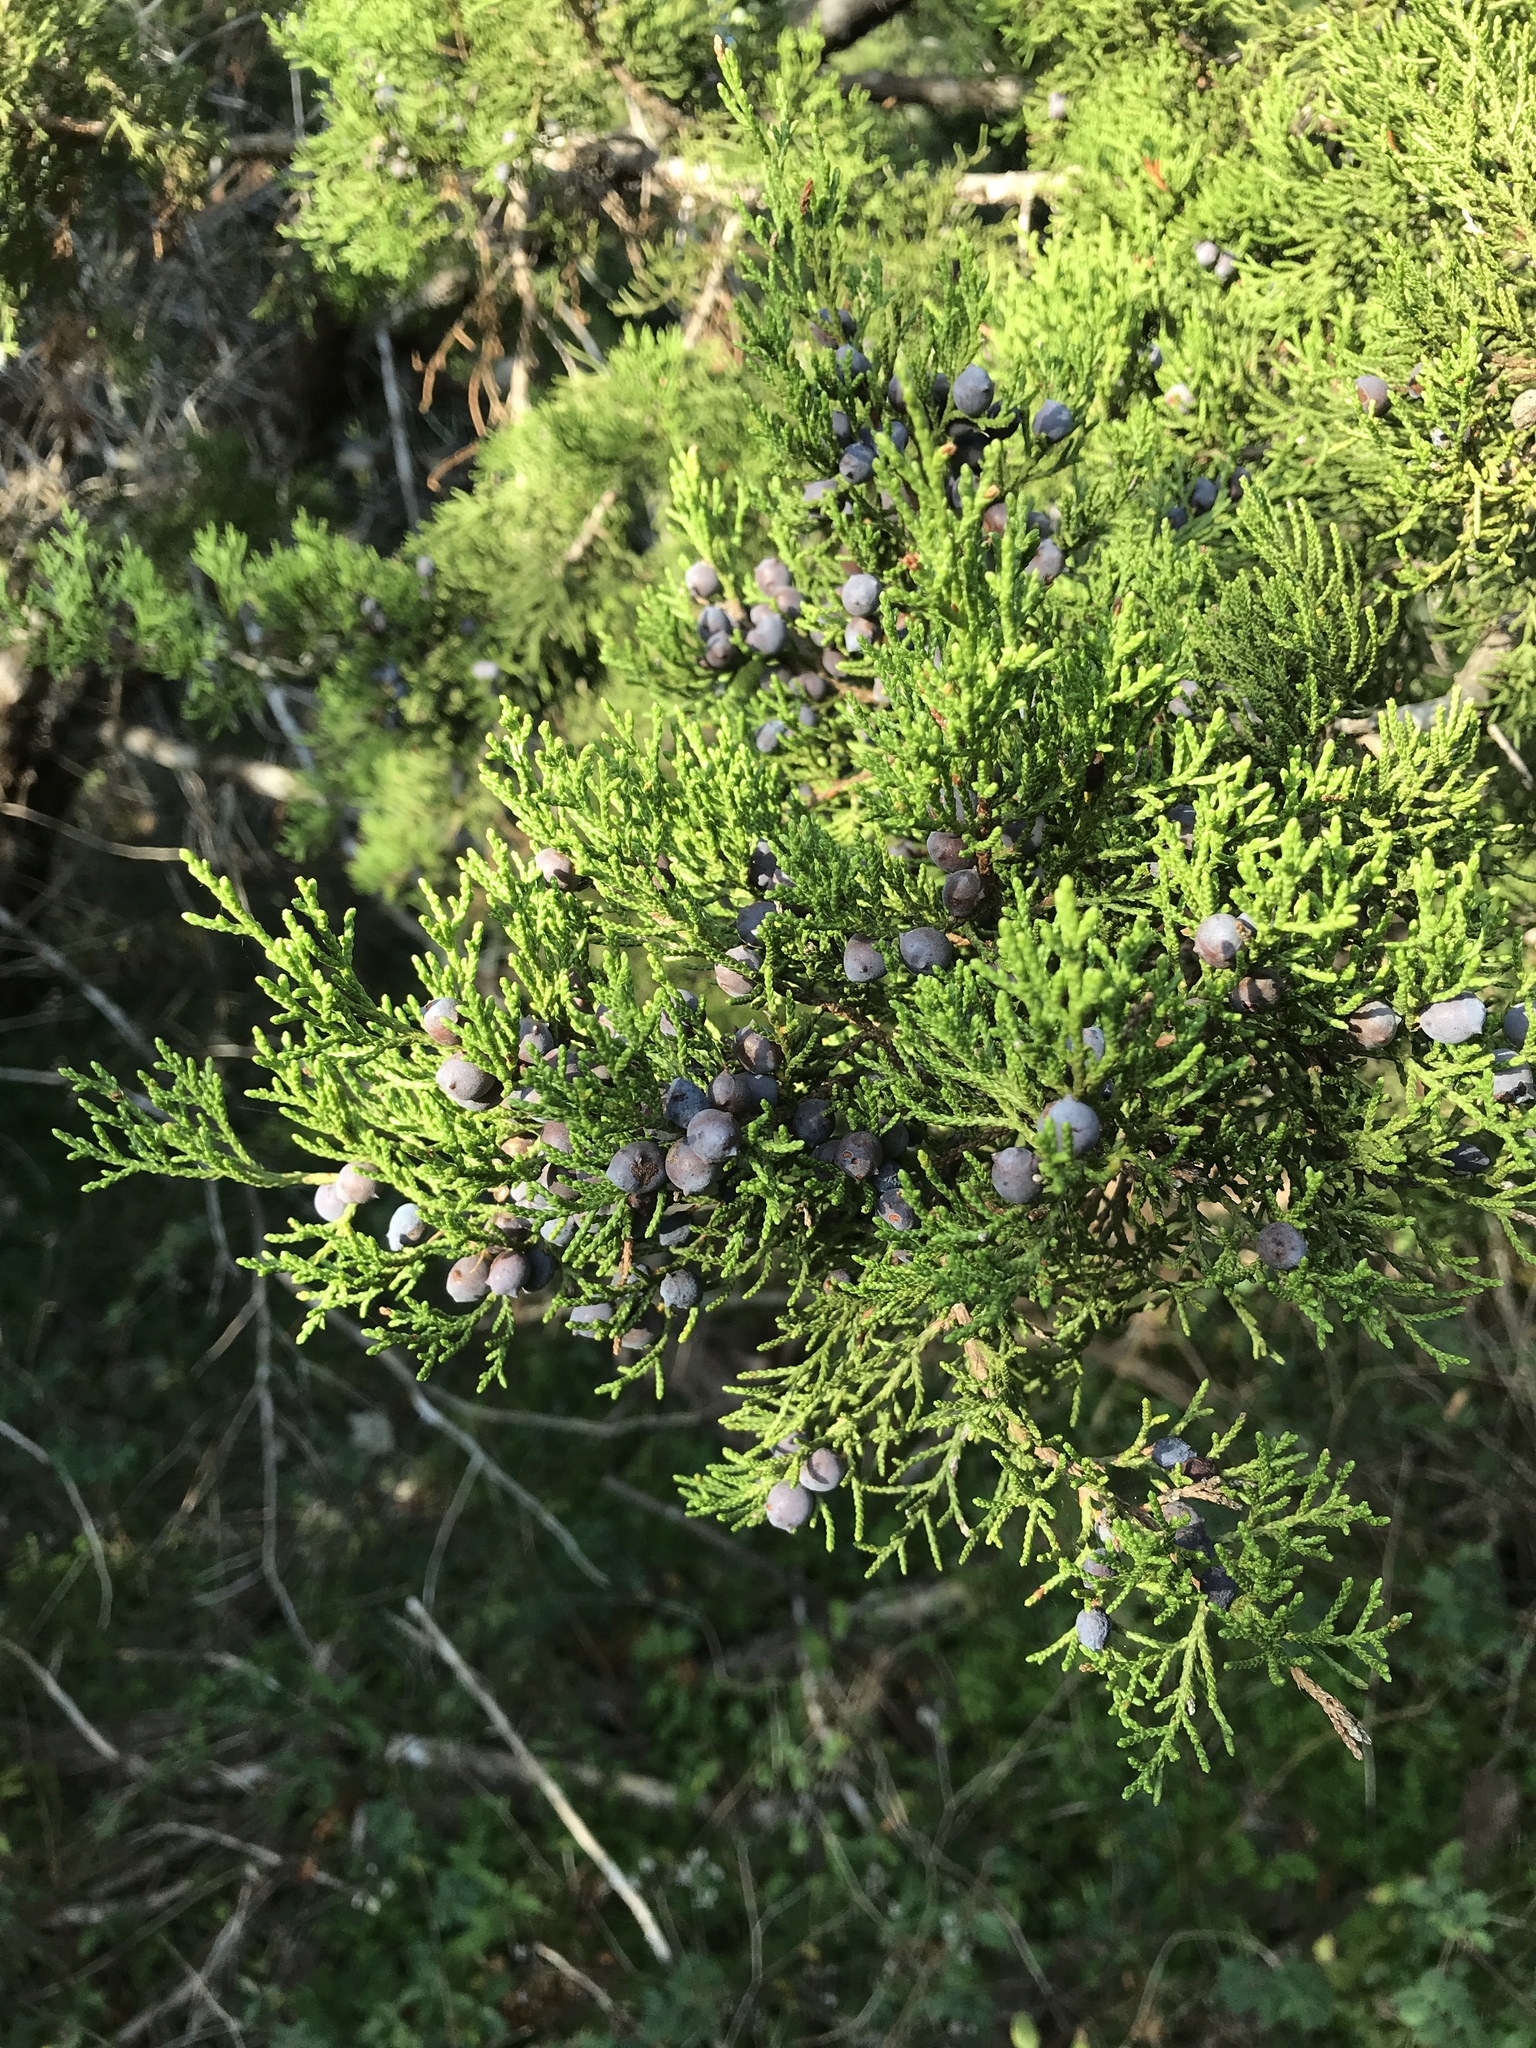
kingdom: Plantae
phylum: Tracheophyta
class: Pinopsida
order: Pinales
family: Cupressaceae
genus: Juniperus
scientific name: Juniperus ashei
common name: Mexican juniper
